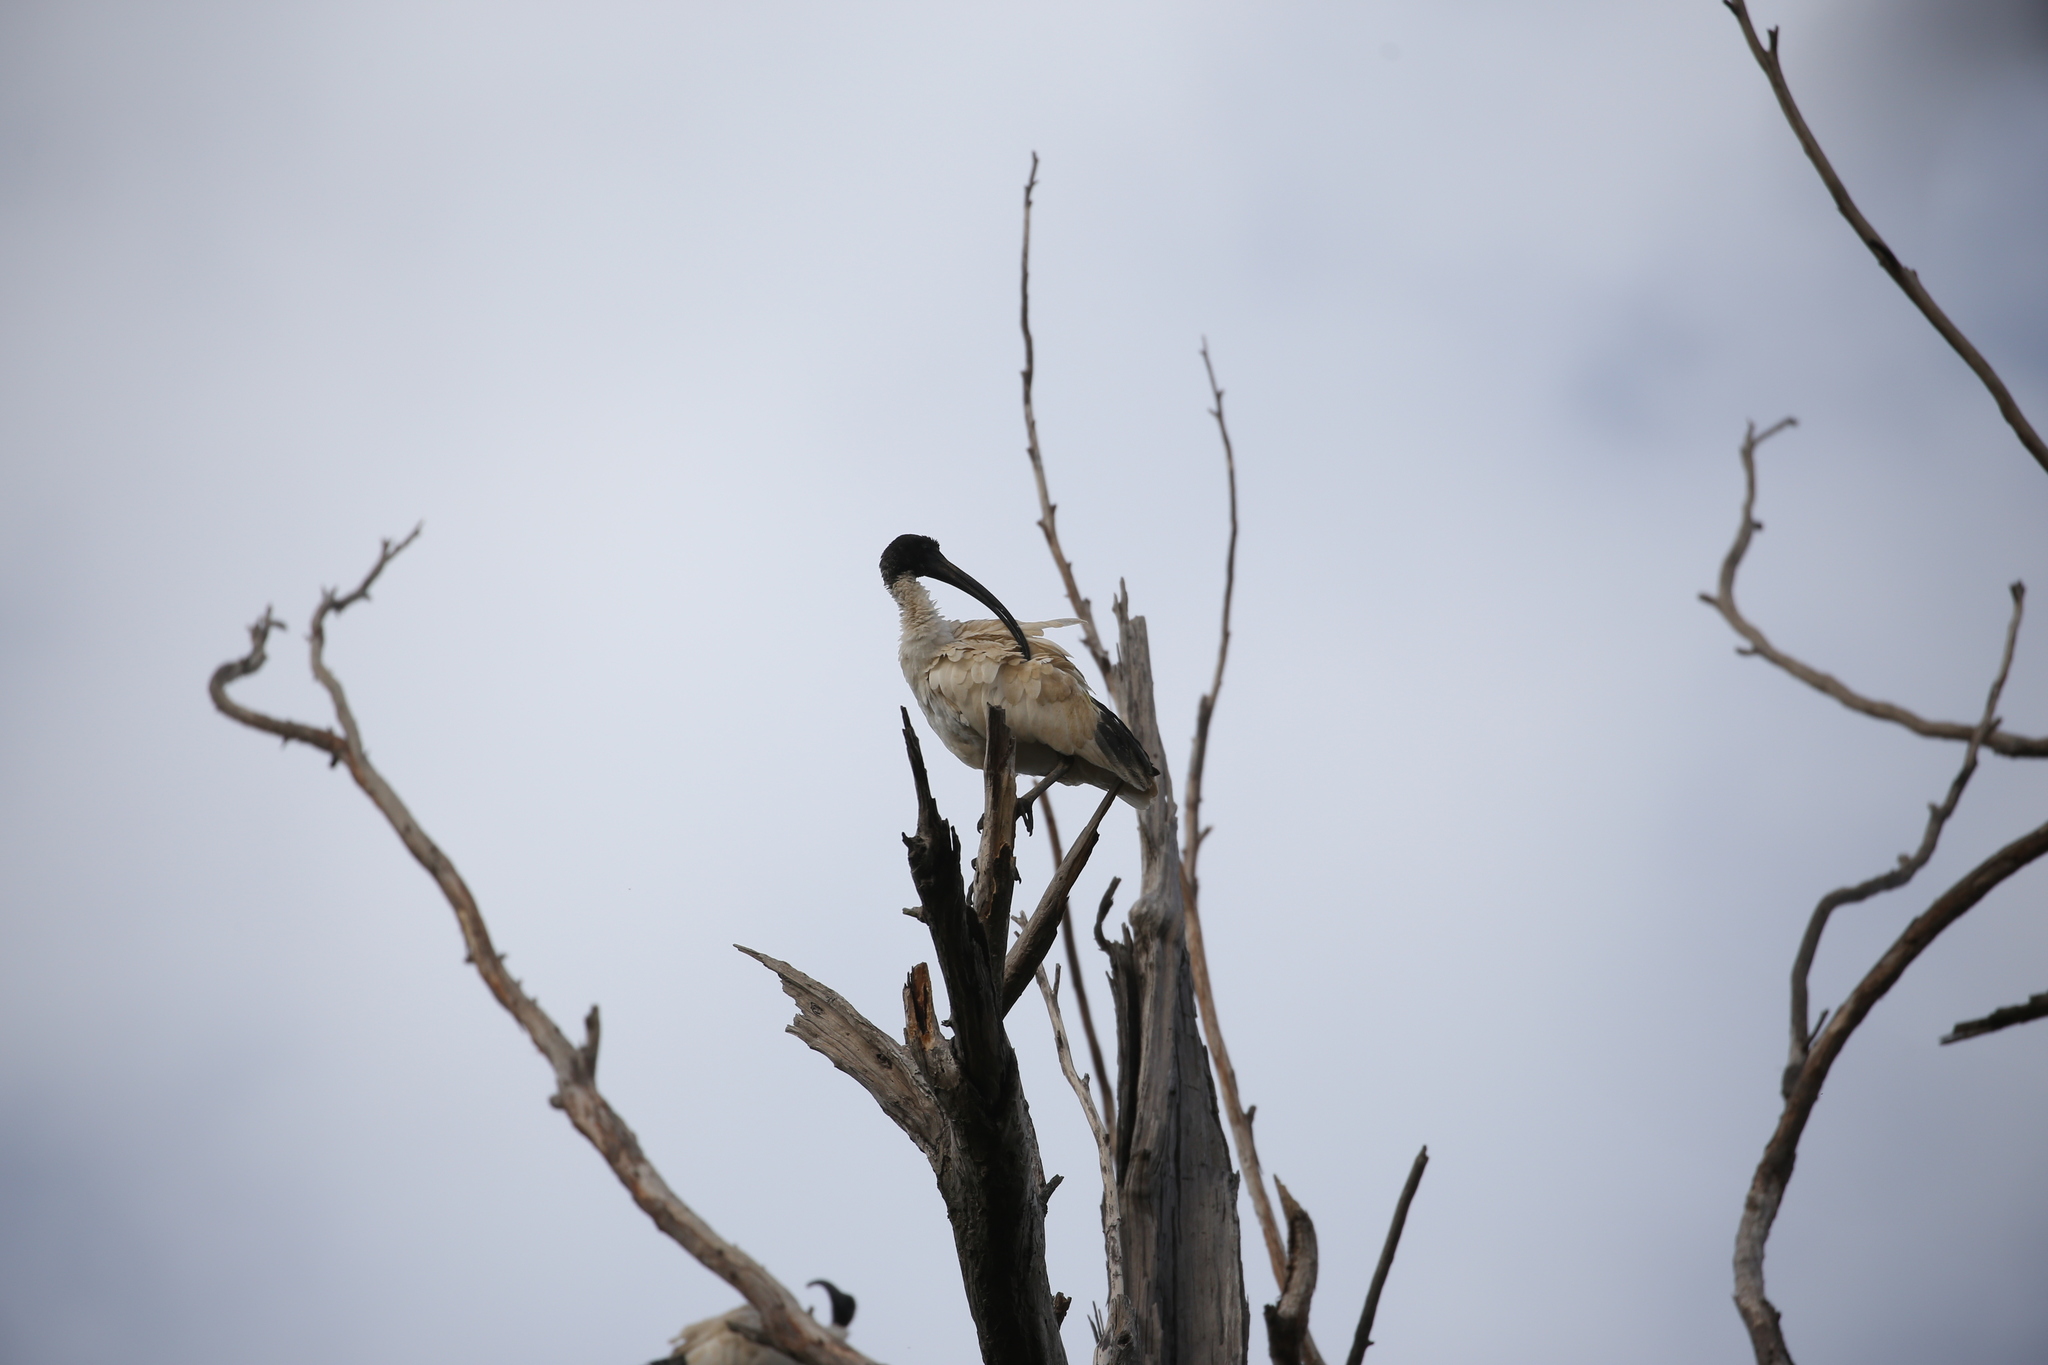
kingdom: Animalia
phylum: Chordata
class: Aves
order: Pelecaniformes
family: Threskiornithidae
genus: Threskiornis
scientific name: Threskiornis molucca
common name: Australian white ibis
